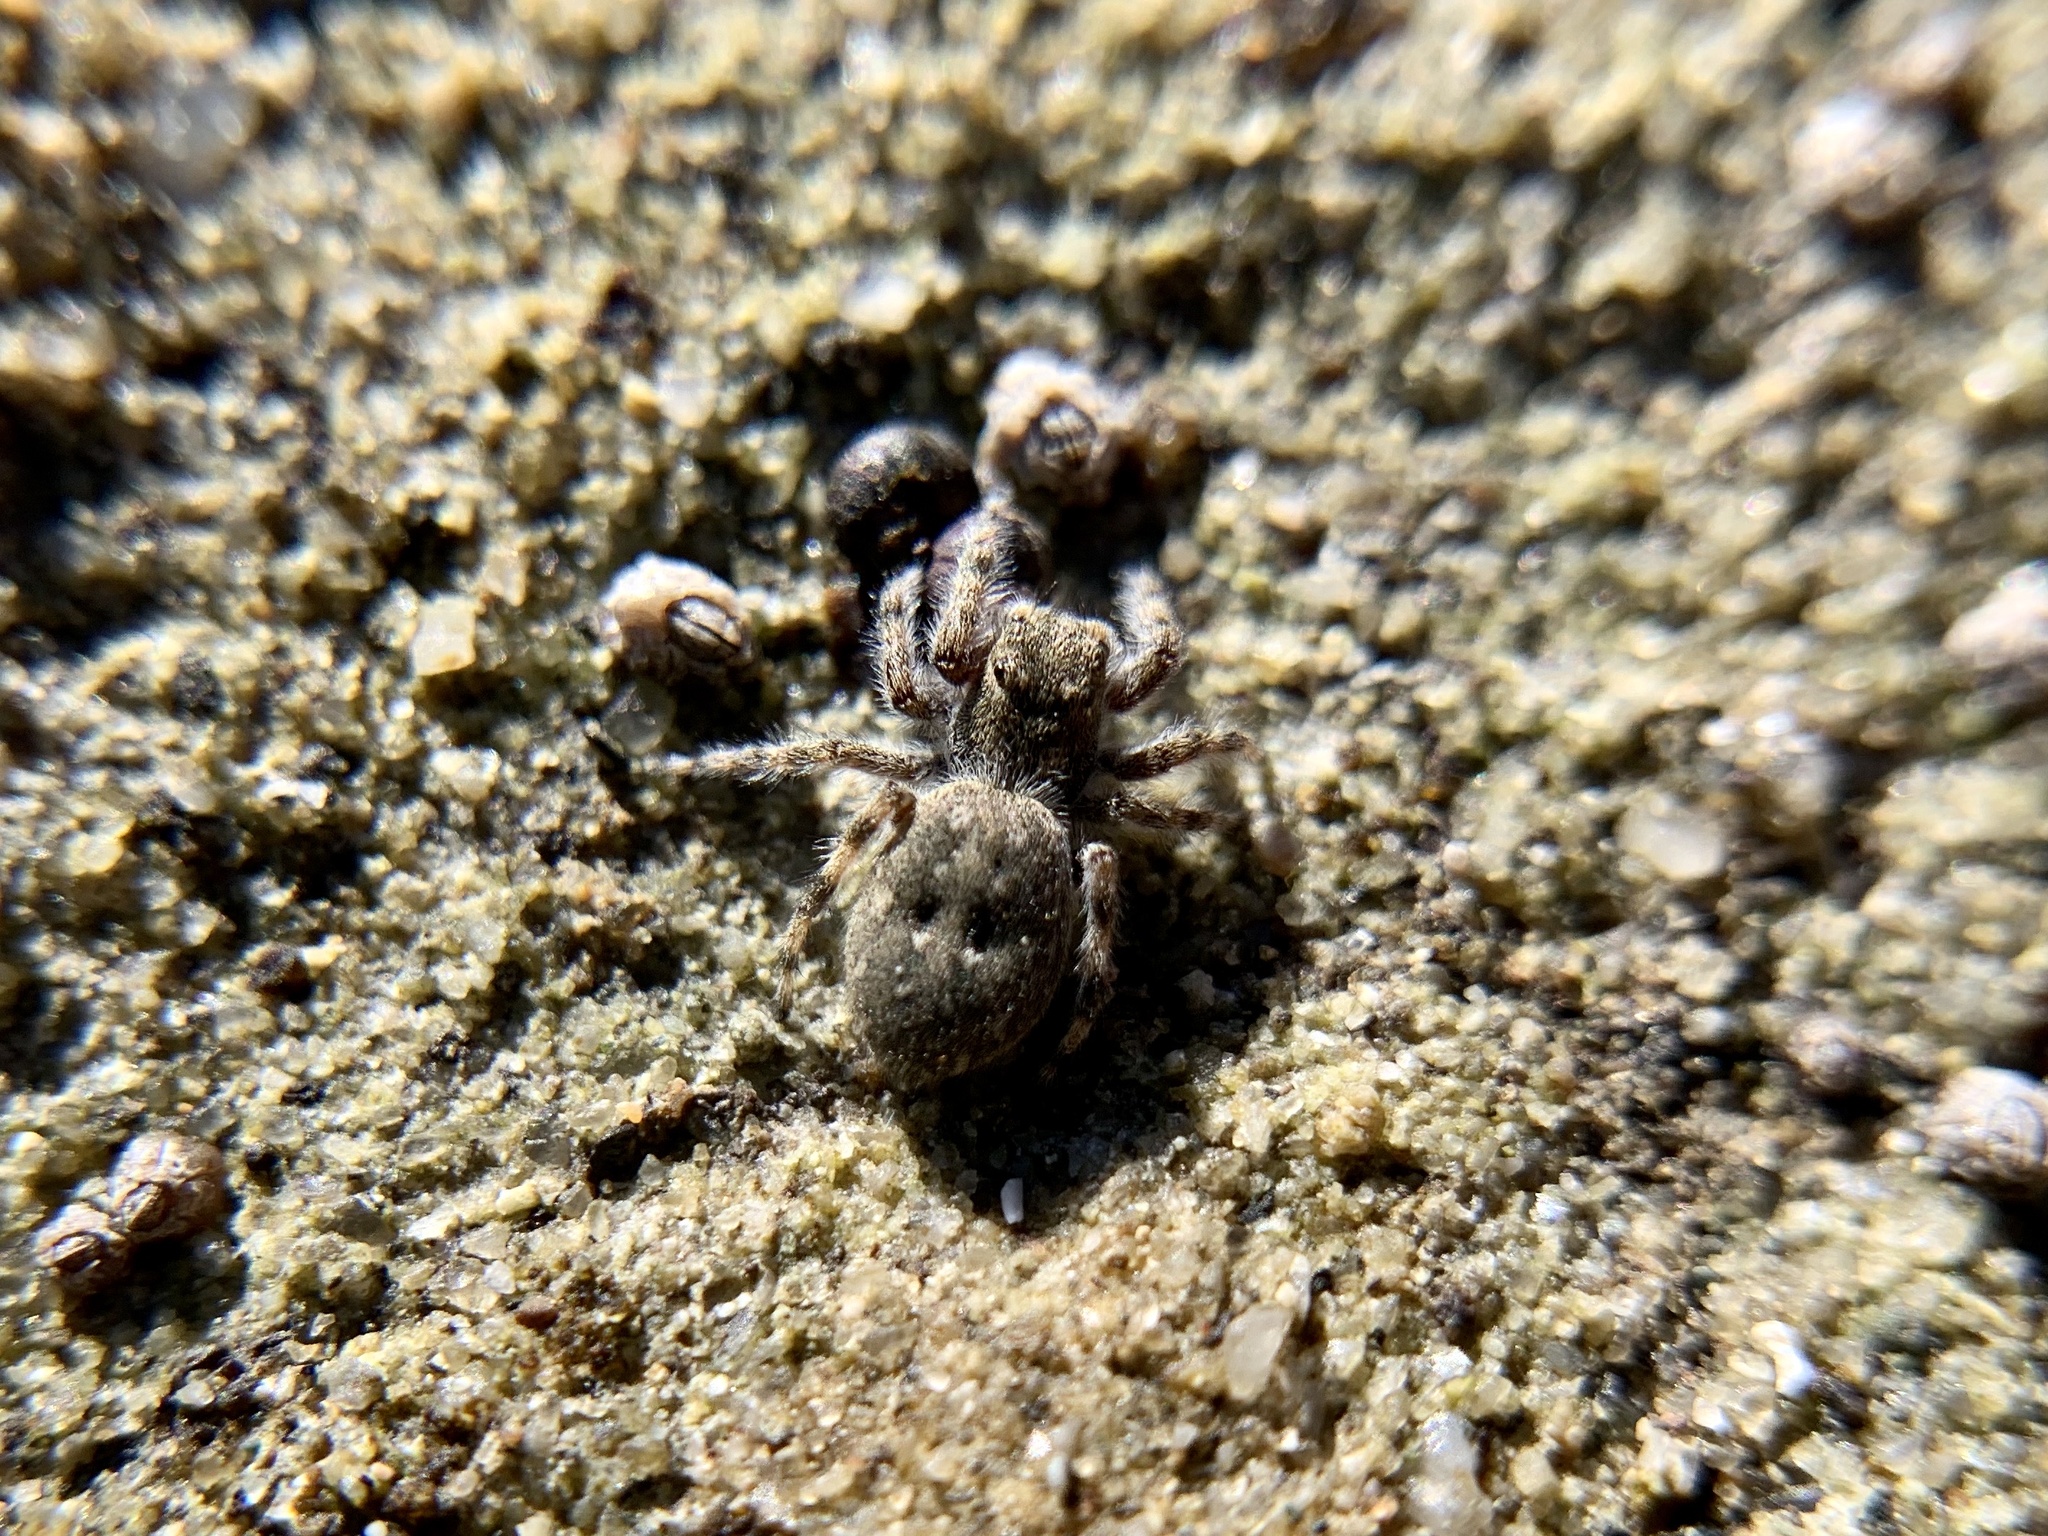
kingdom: Animalia
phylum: Arthropoda
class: Arachnida
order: Araneae
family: Salticidae
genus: Terralonus
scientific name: Terralonus californicus
